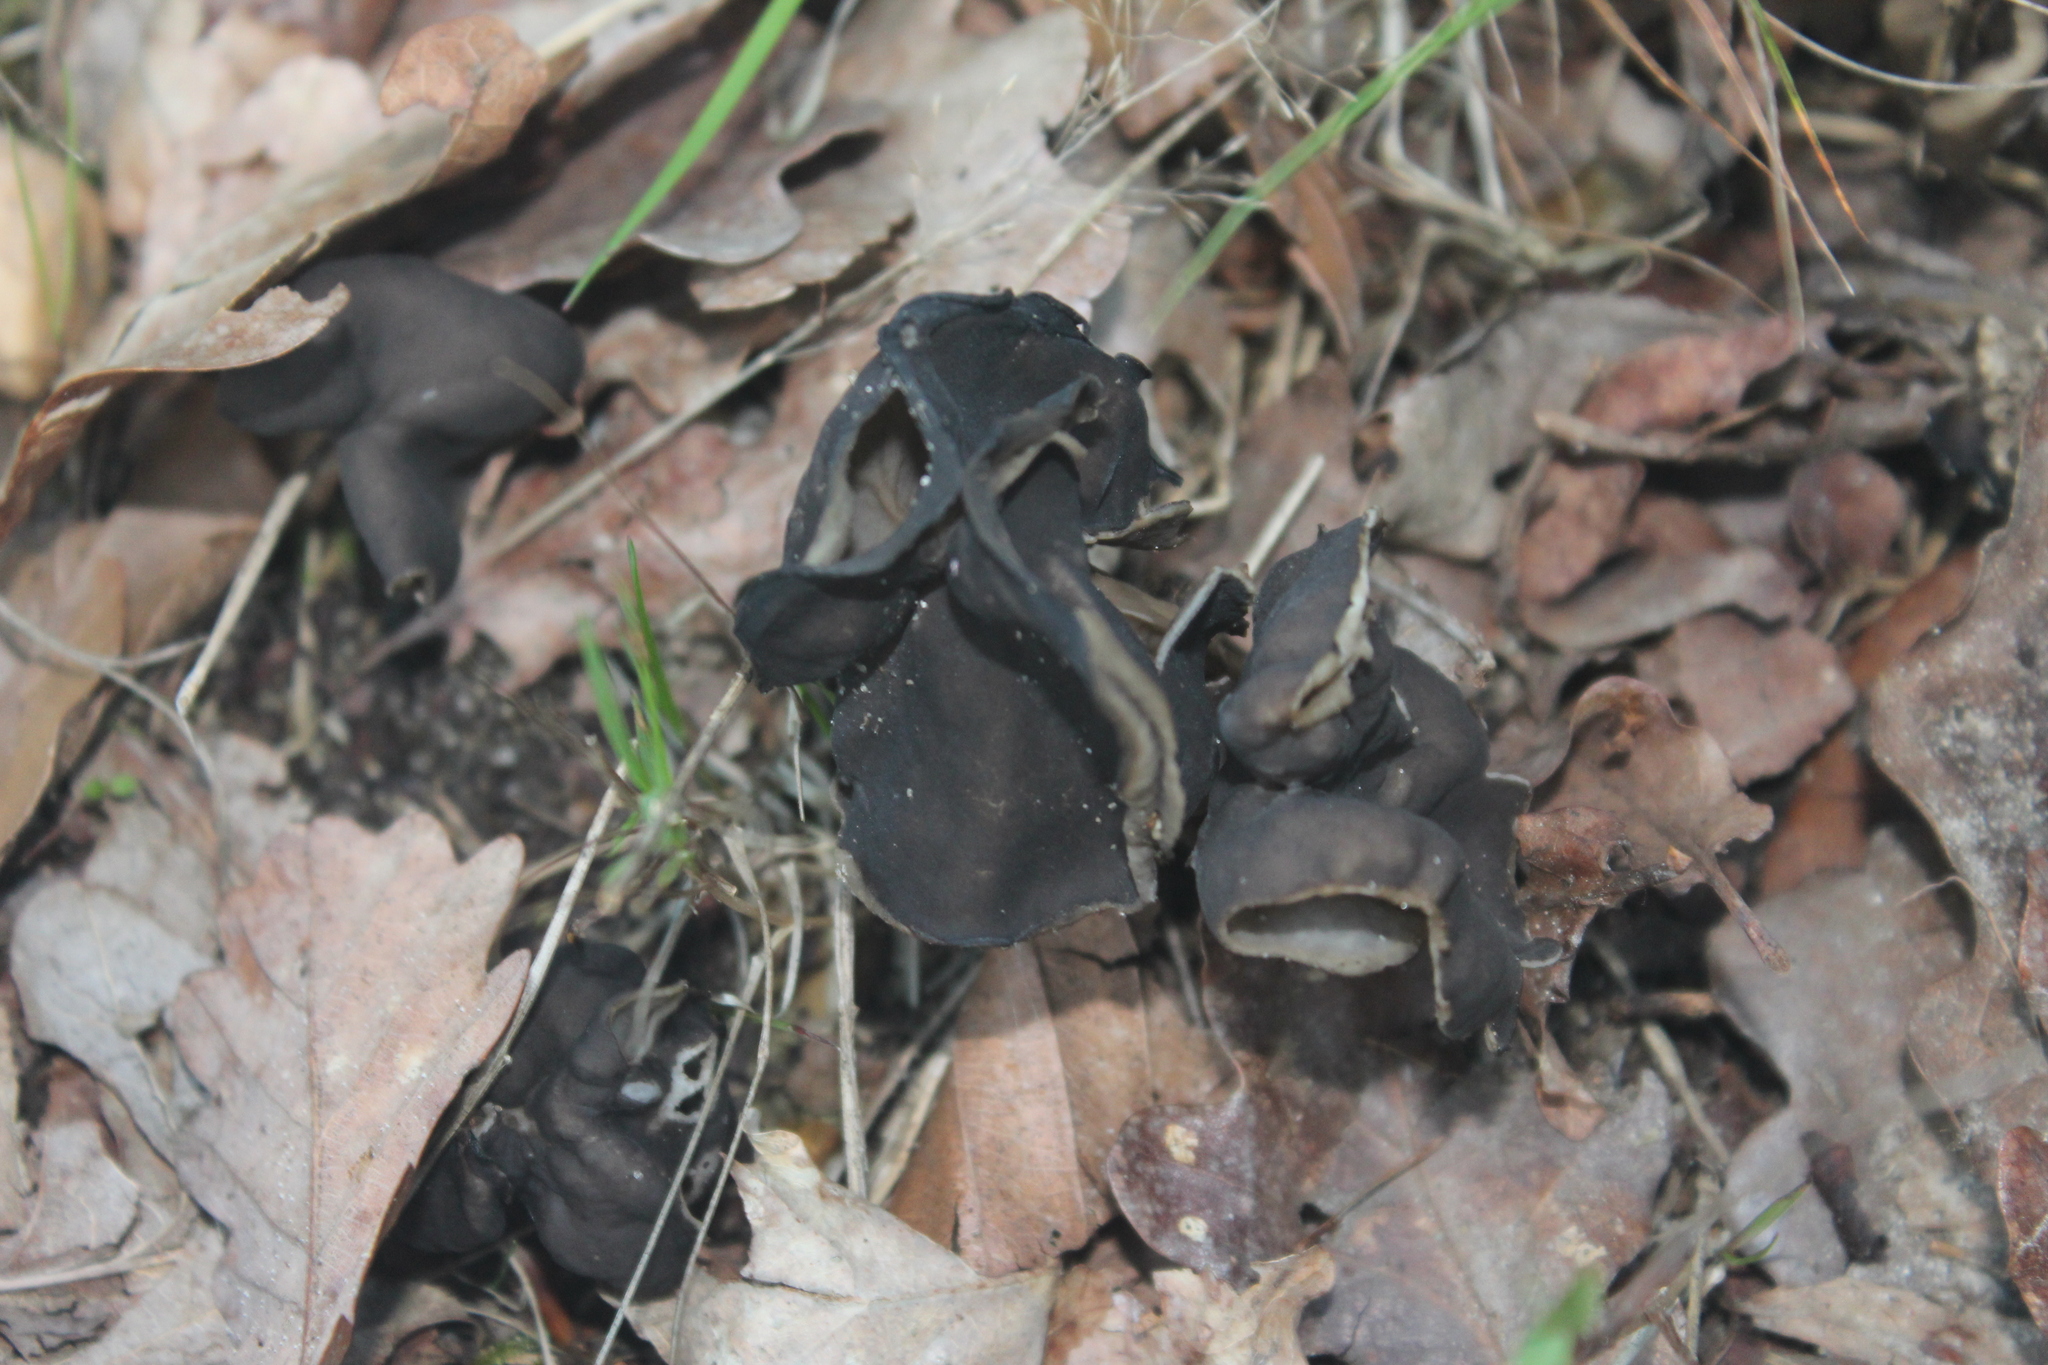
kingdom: Fungi
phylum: Ascomycota
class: Pezizomycetes
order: Pezizales
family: Helvellaceae
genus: Helvella
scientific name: Helvella lacunosa
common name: Elfin saddle
